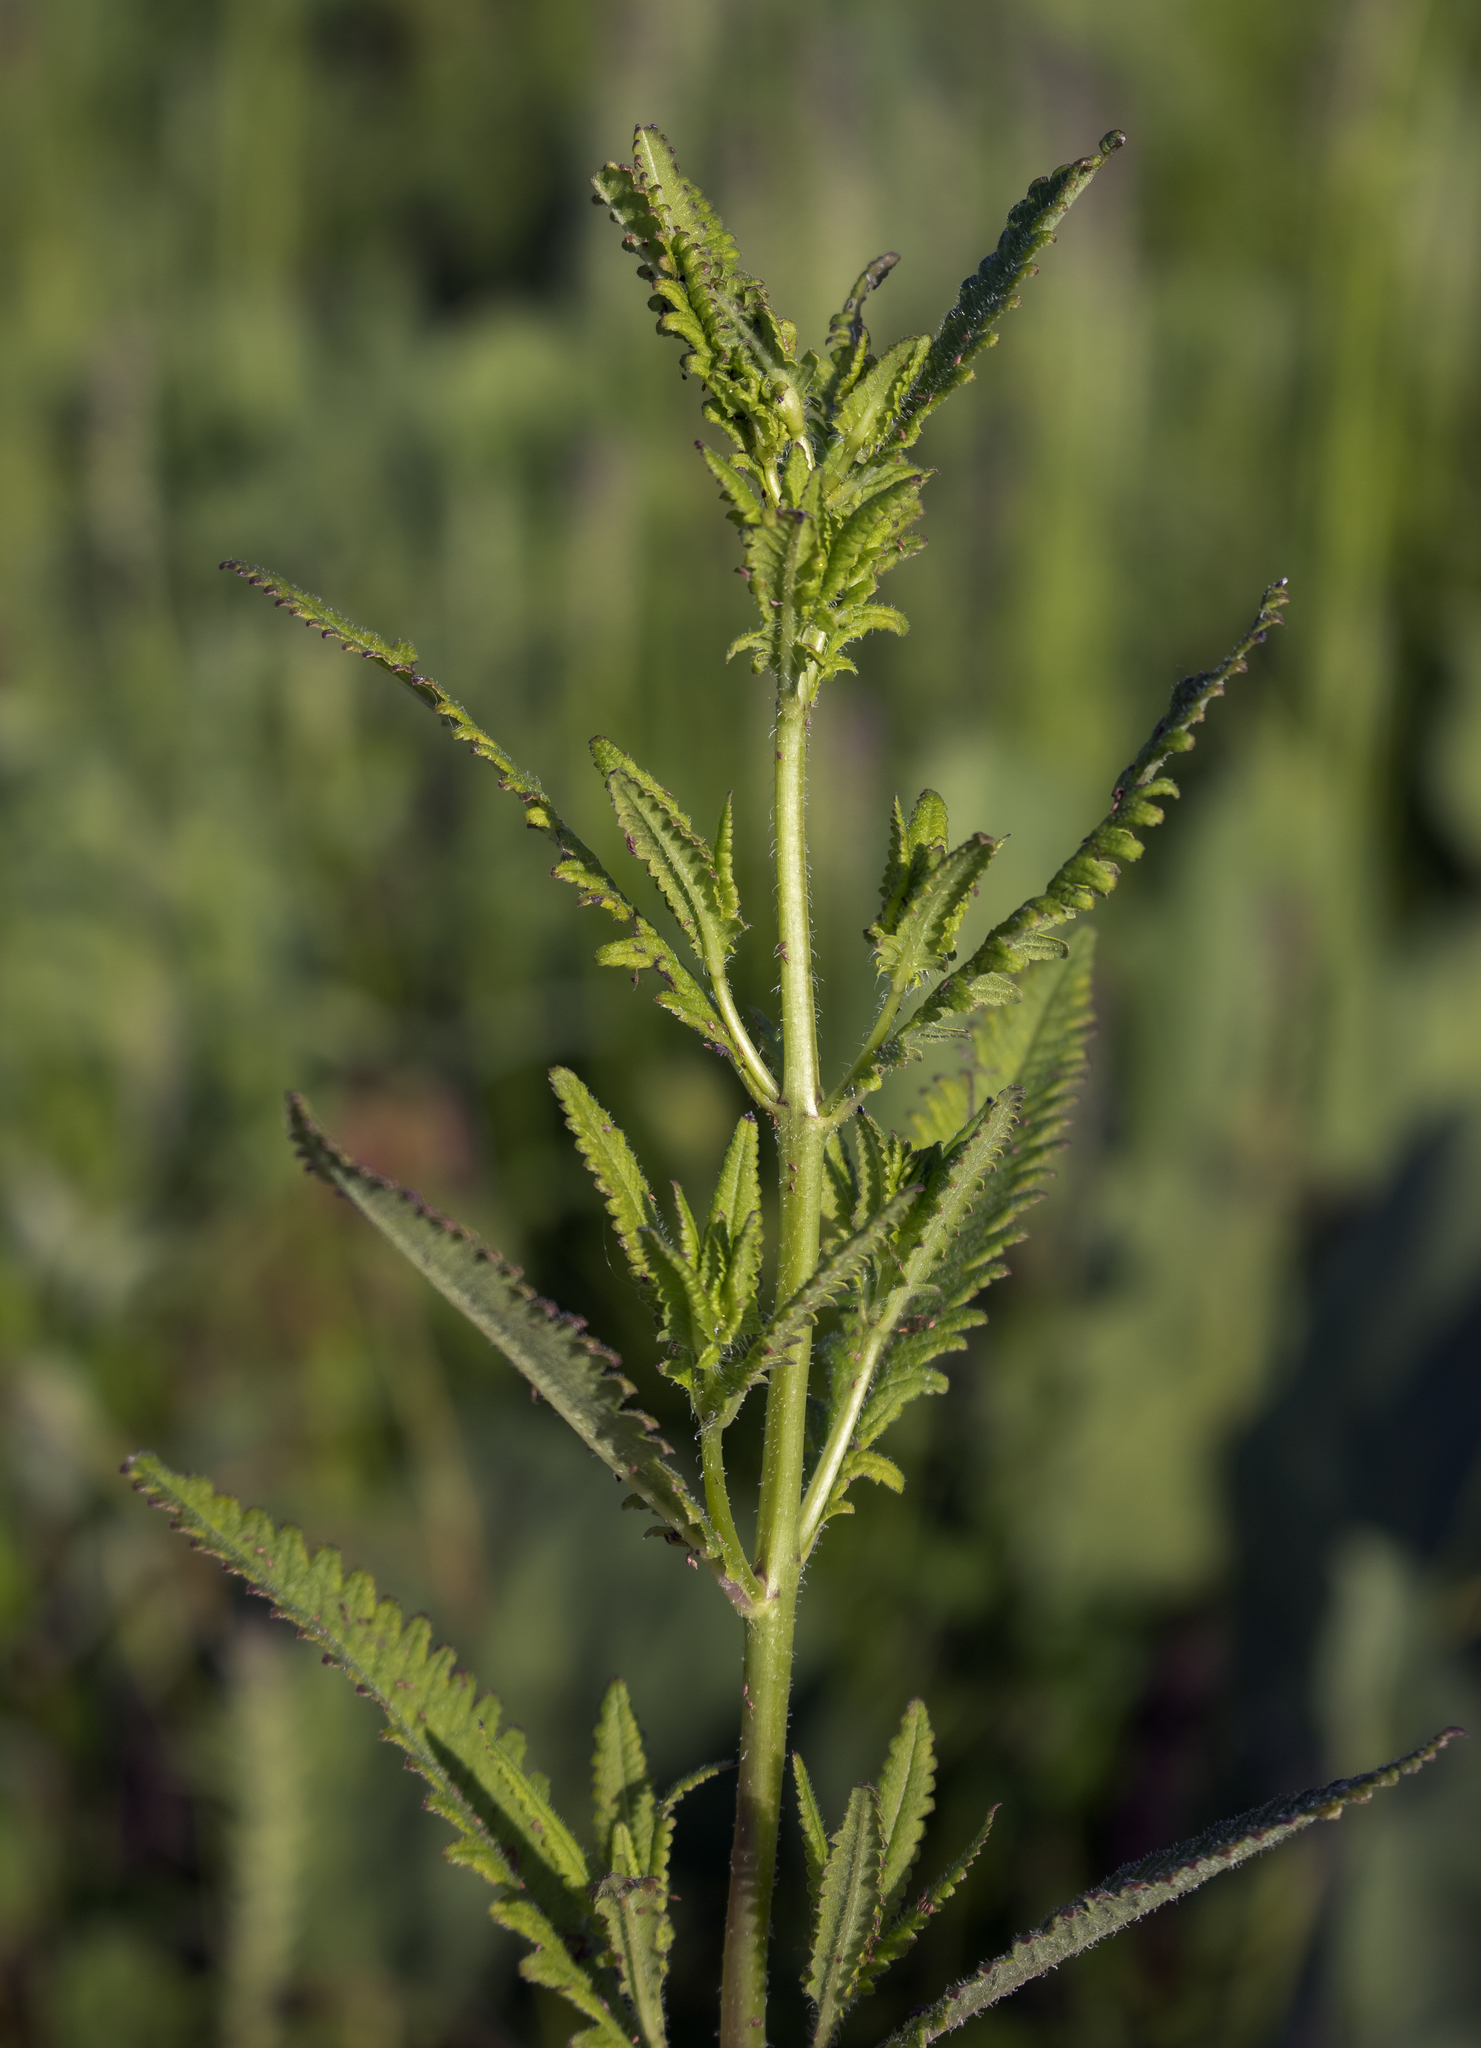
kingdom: Plantae
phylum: Tracheophyta
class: Magnoliopsida
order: Lamiales
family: Orobanchaceae
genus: Pedicularis
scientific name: Pedicularis lanceolata
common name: Swamp lousewort
